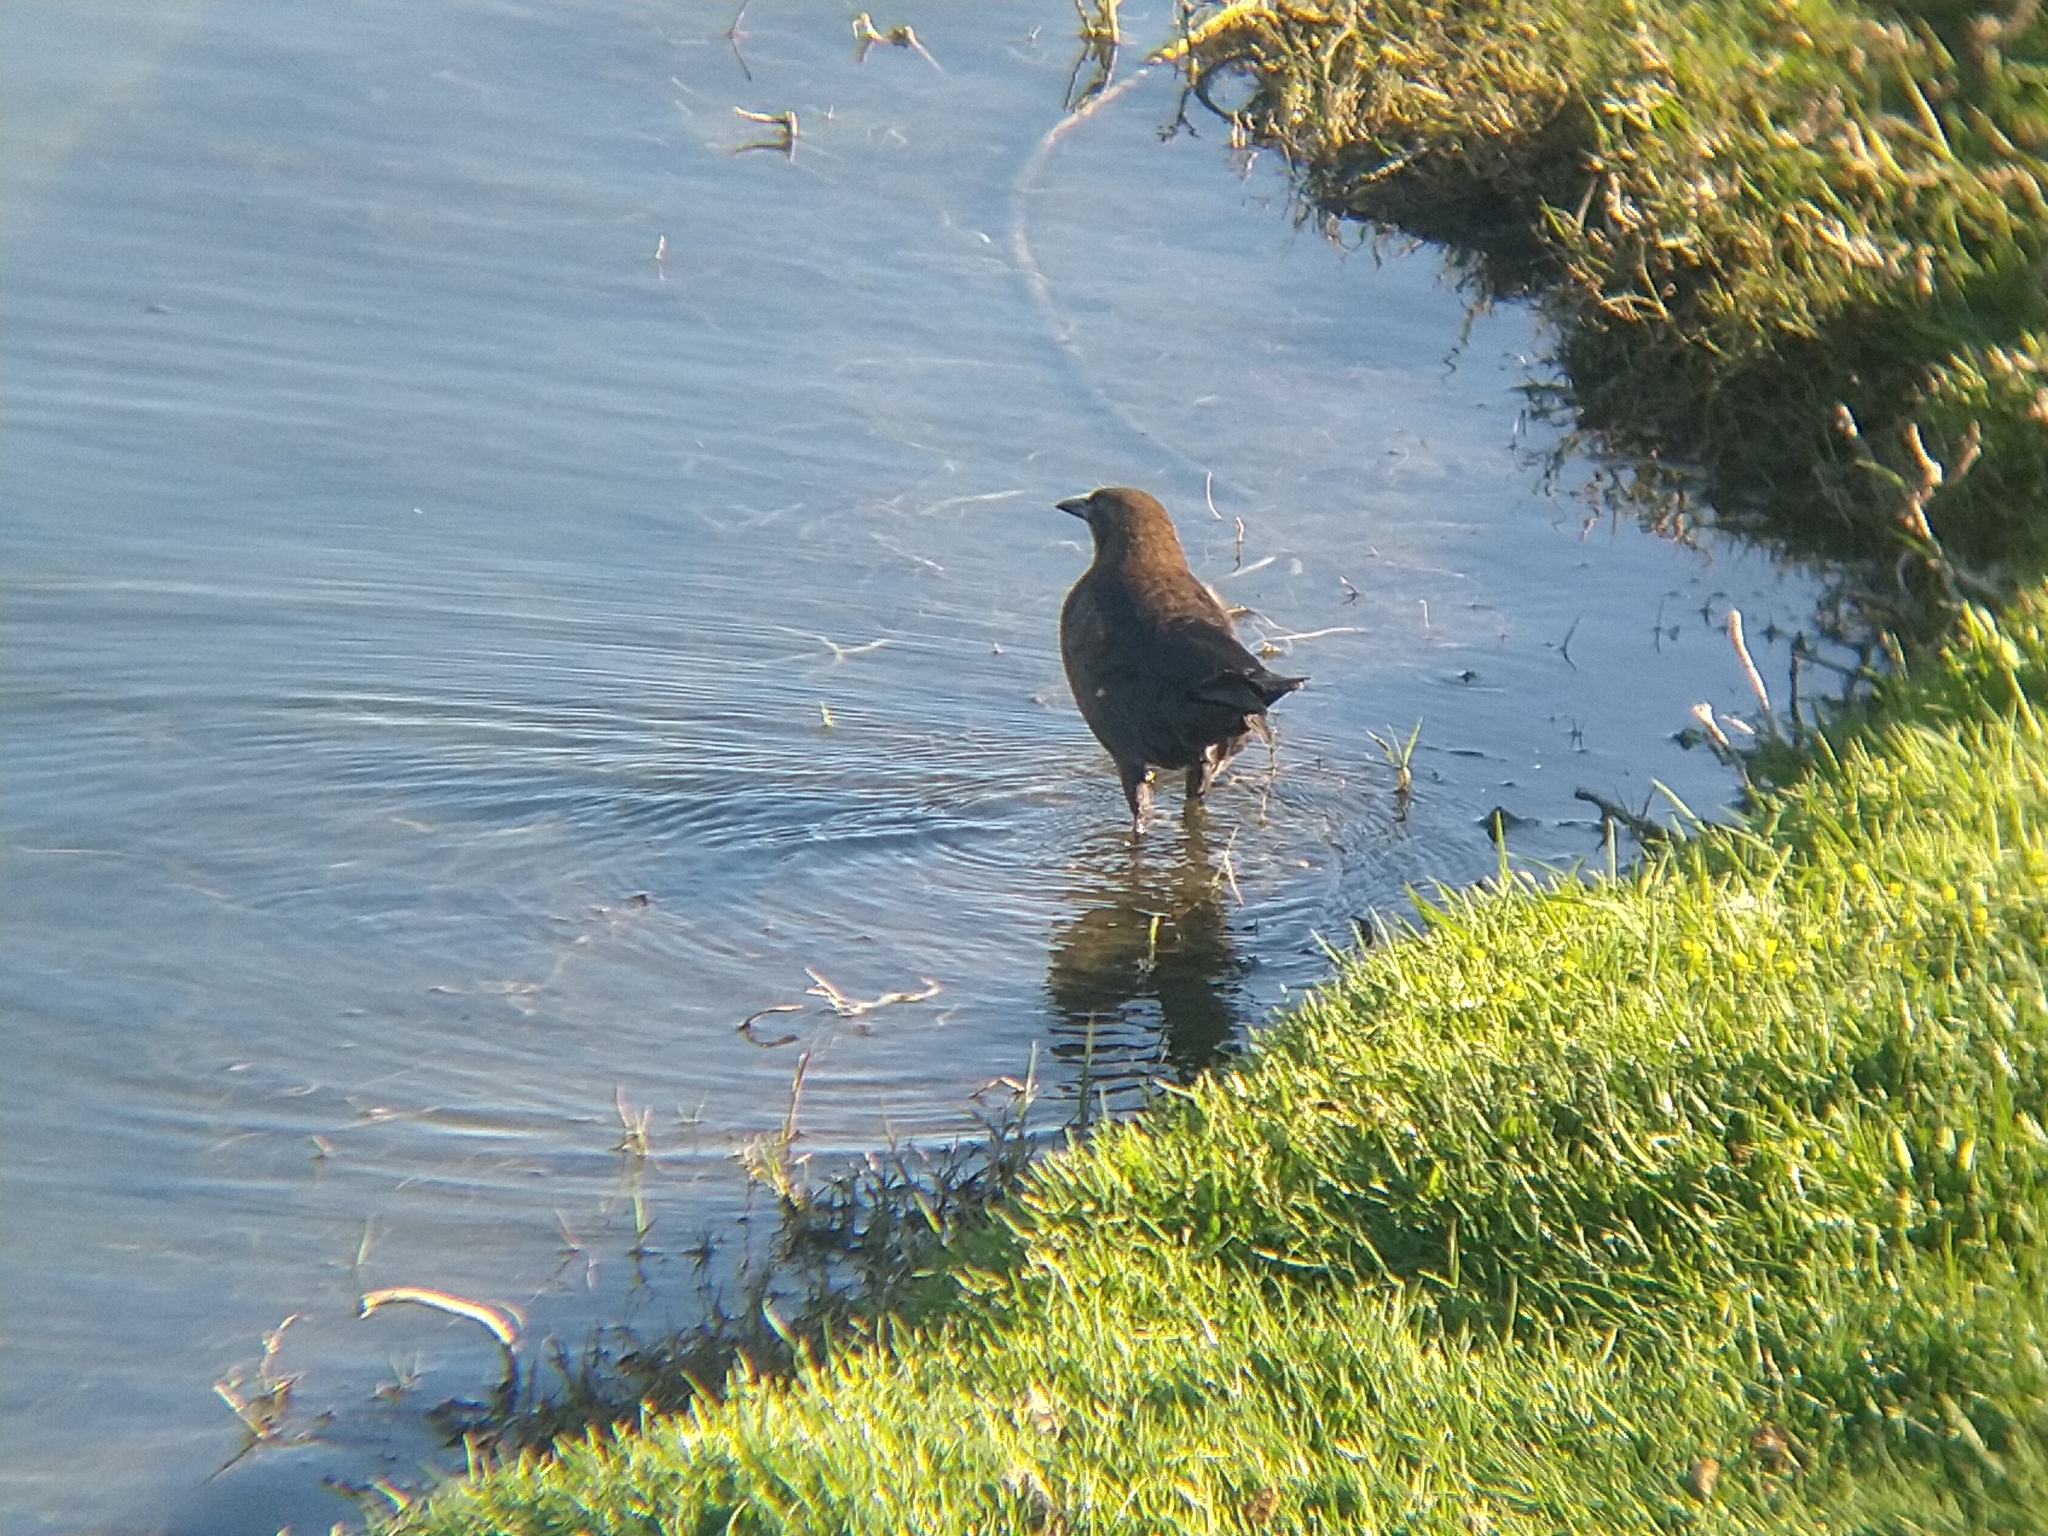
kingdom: Animalia
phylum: Chordata
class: Aves
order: Passeriformes
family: Icteridae
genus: Quiscalus
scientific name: Quiscalus mexicanus
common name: Great-tailed grackle
